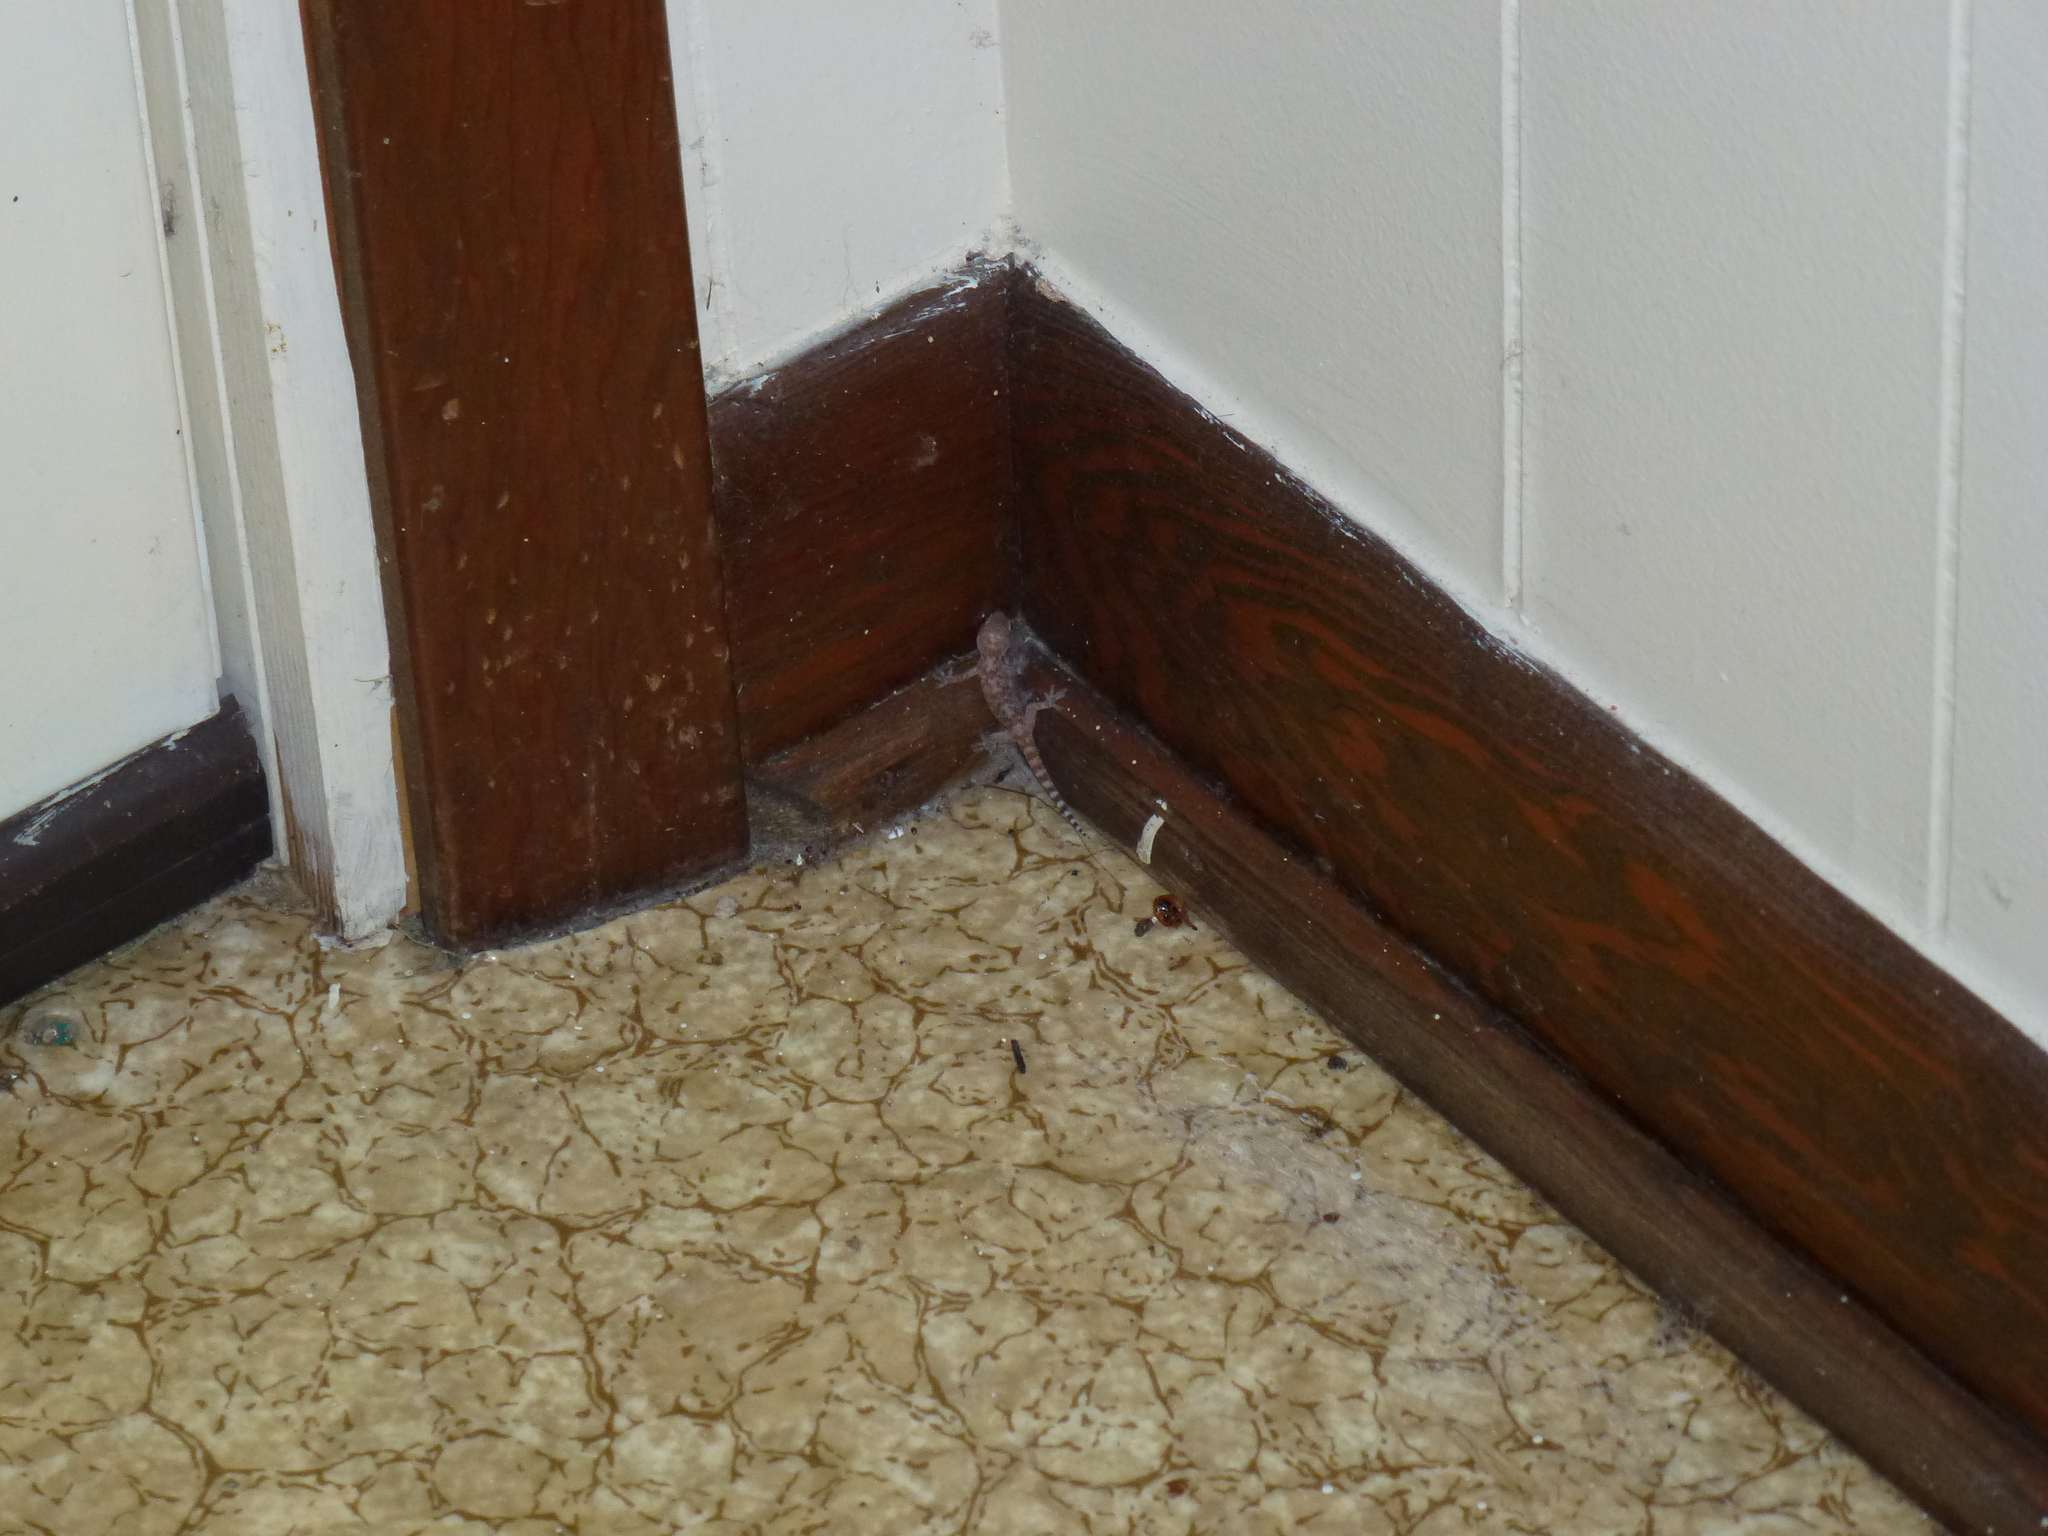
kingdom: Animalia
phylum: Chordata
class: Squamata
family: Gekkonidae
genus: Hemidactylus
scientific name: Hemidactylus turcicus
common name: Turkish gecko
